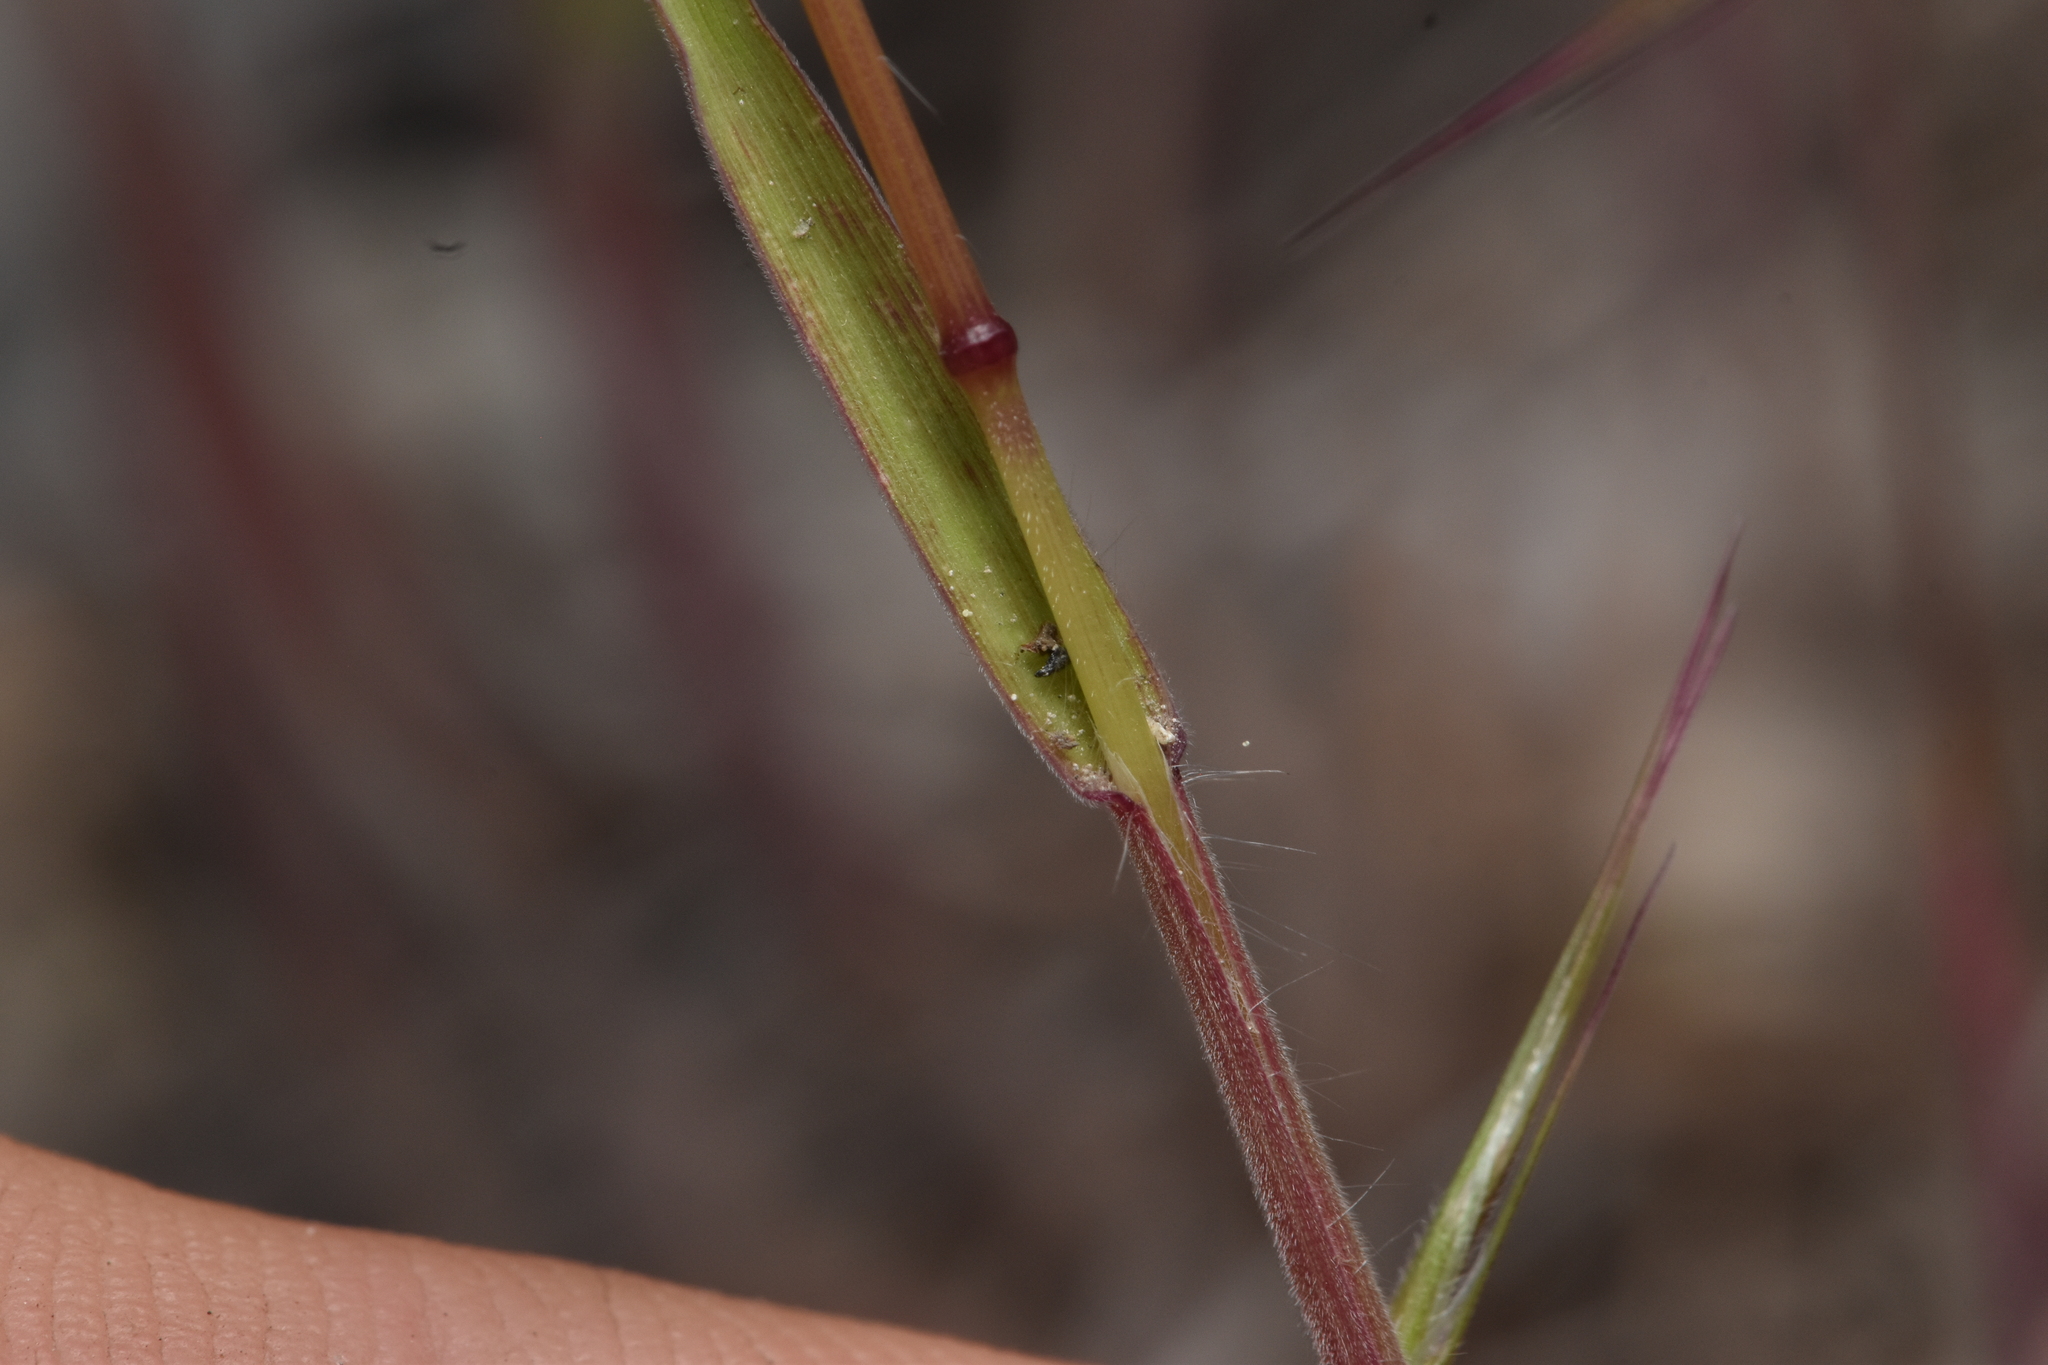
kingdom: Plantae
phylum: Tracheophyta
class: Liliopsida
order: Poales
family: Poaceae
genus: Bromus
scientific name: Bromus tectorum
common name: Cheatgrass
